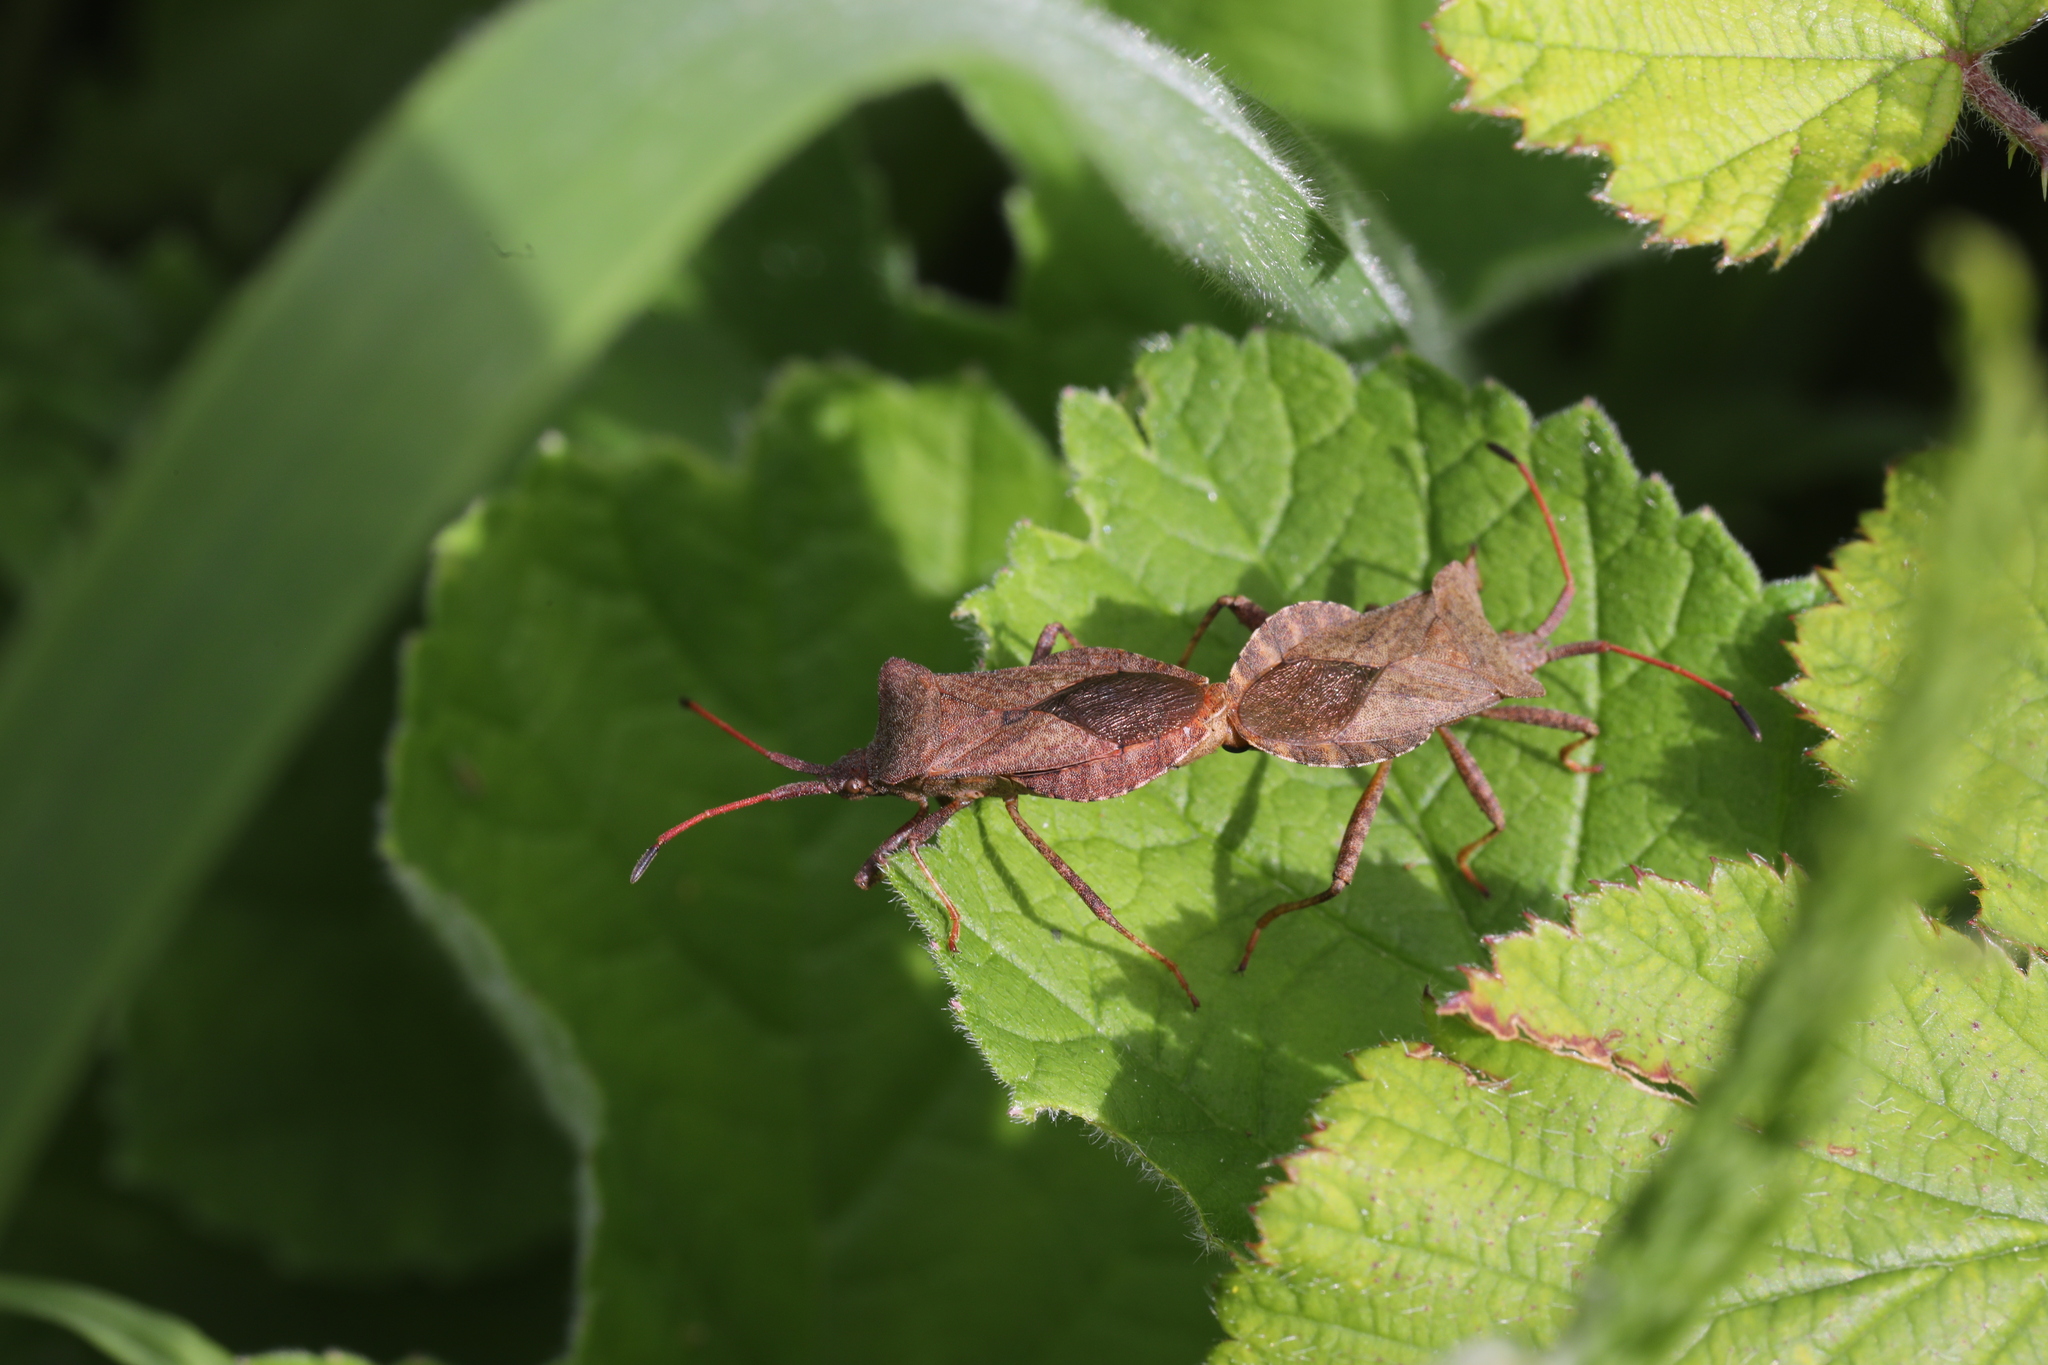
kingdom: Animalia
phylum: Arthropoda
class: Insecta
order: Hemiptera
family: Coreidae
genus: Coreus
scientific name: Coreus marginatus
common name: Dock bug
